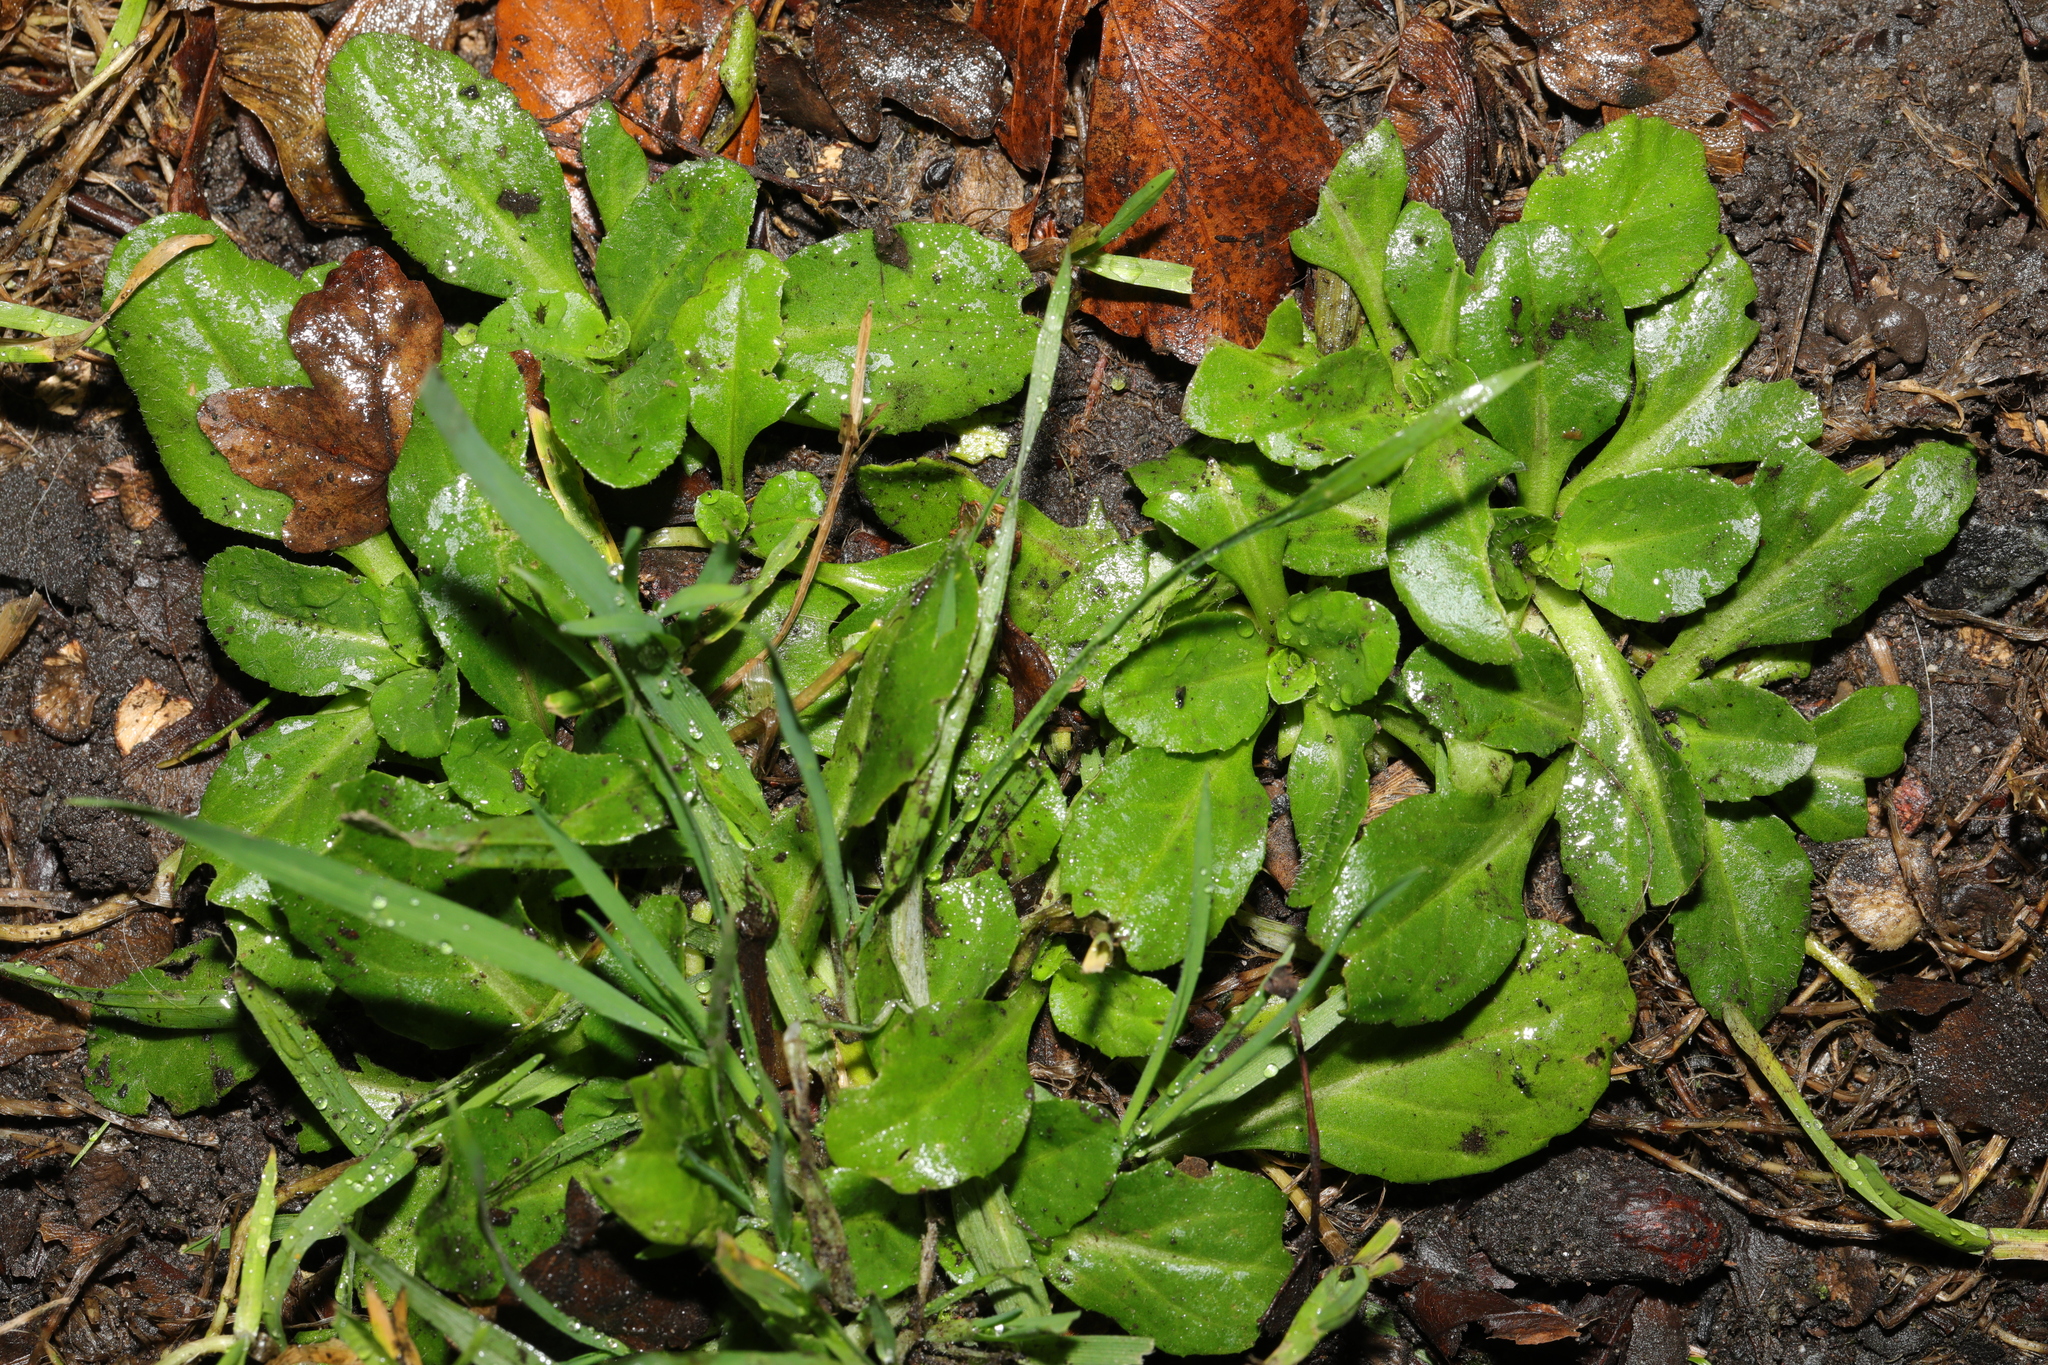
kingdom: Plantae
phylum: Tracheophyta
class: Magnoliopsida
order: Asterales
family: Asteraceae
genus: Bellis
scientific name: Bellis perennis
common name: Lawndaisy
